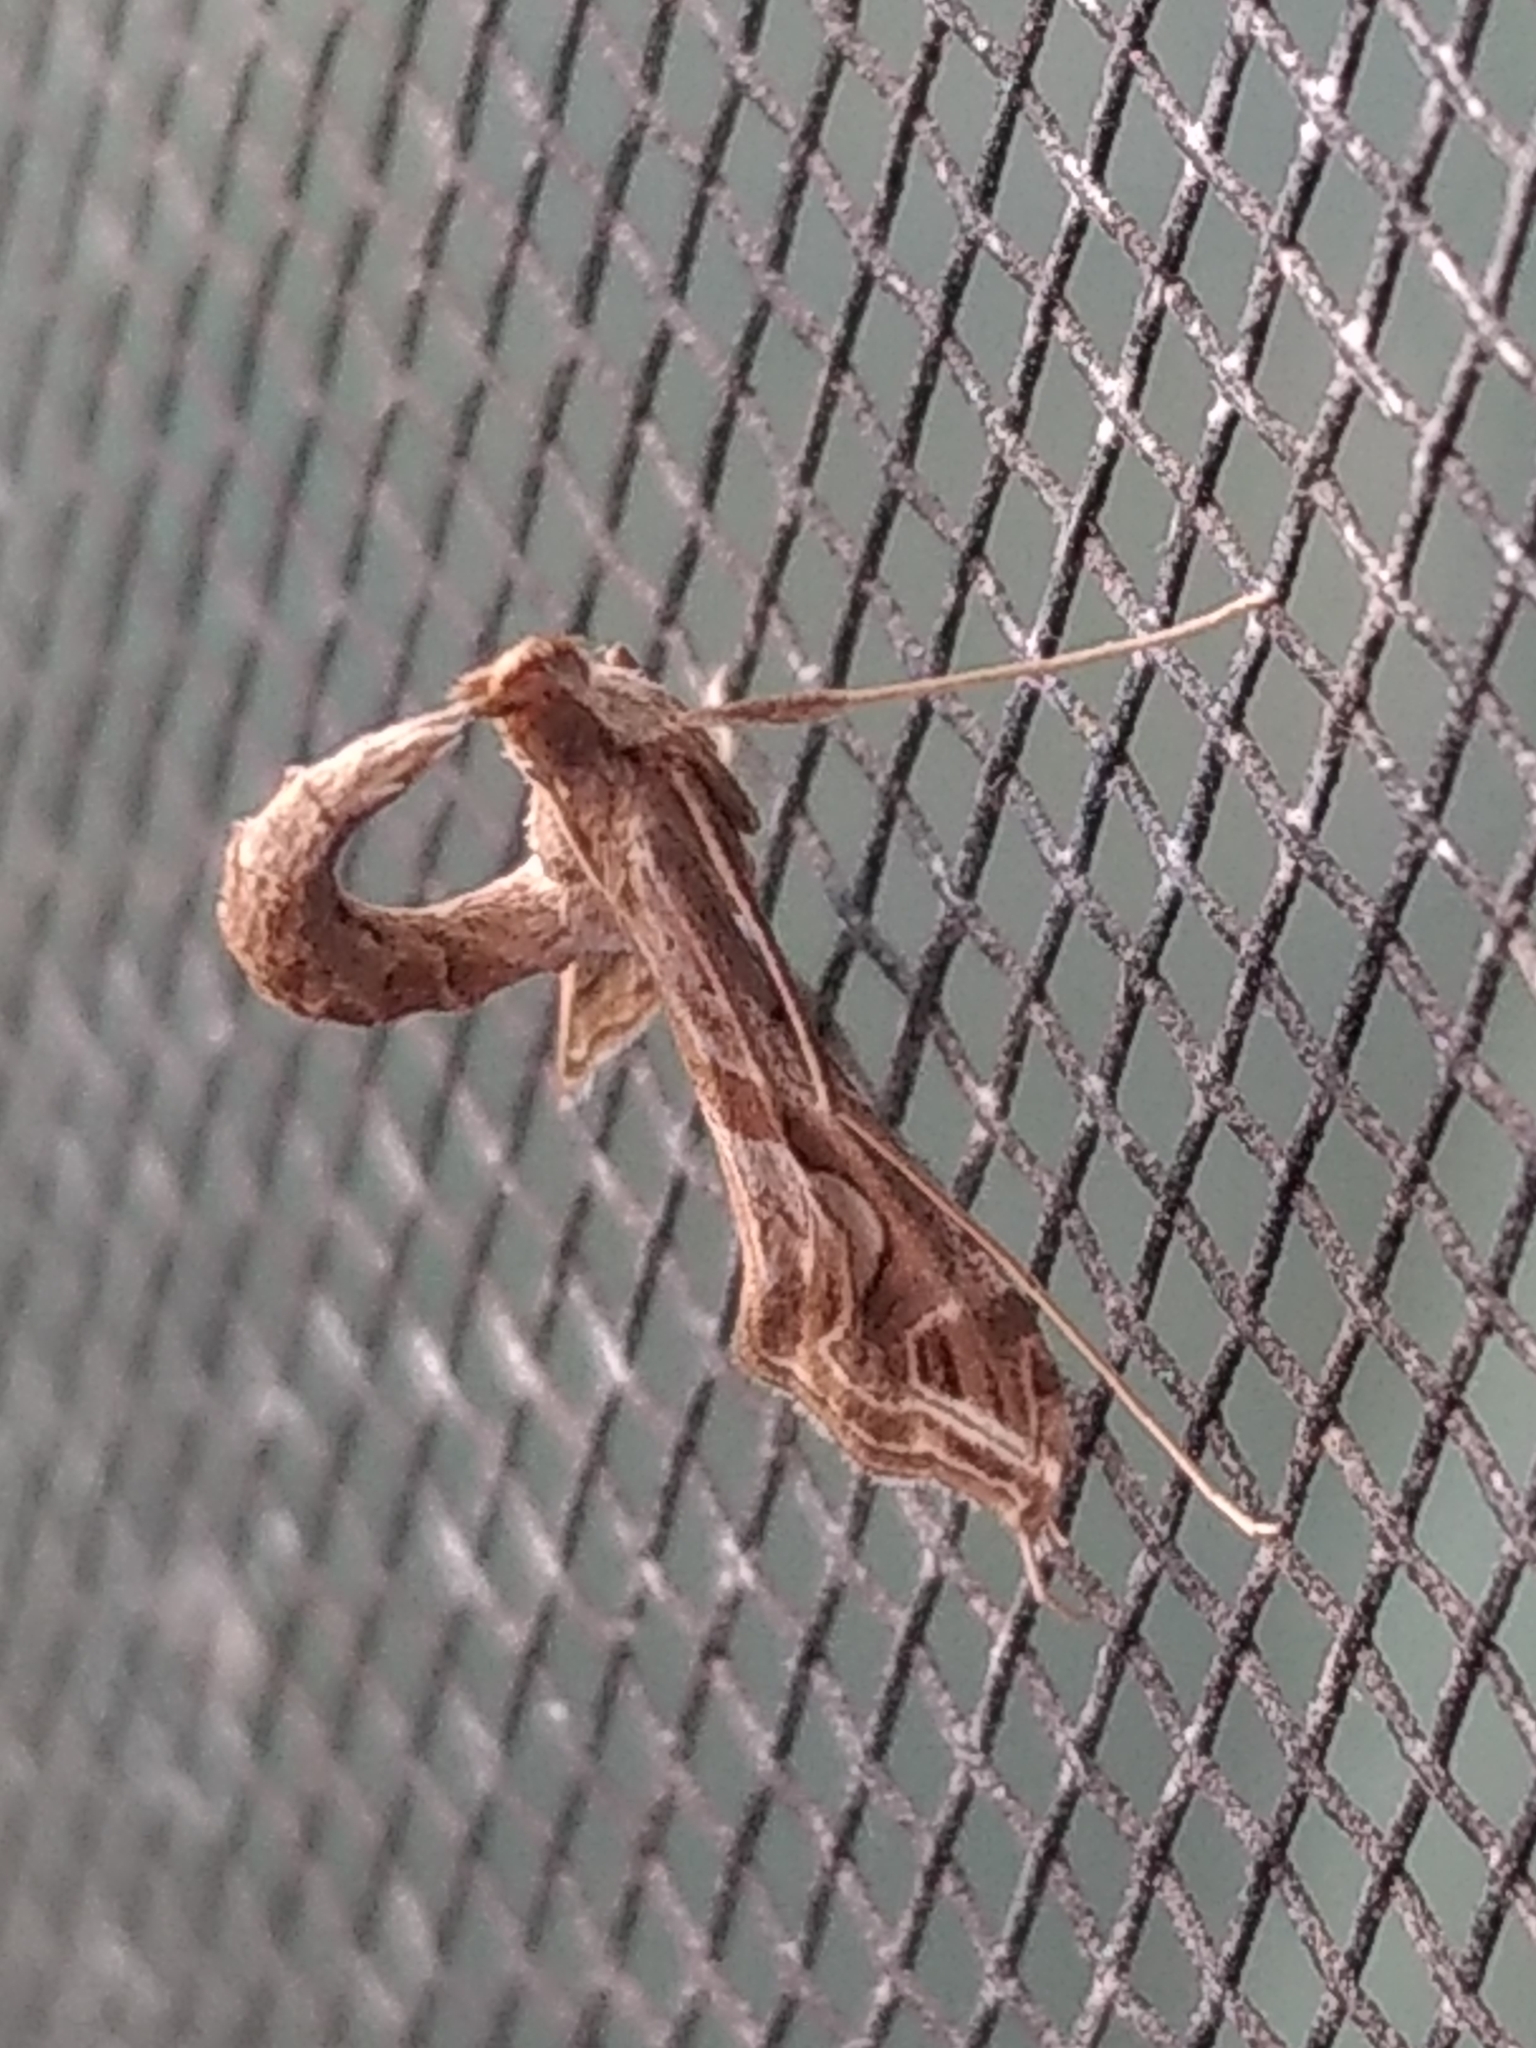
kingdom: Animalia
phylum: Arthropoda
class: Insecta
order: Lepidoptera
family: Crambidae
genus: Lineodes
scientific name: Lineodes integra
